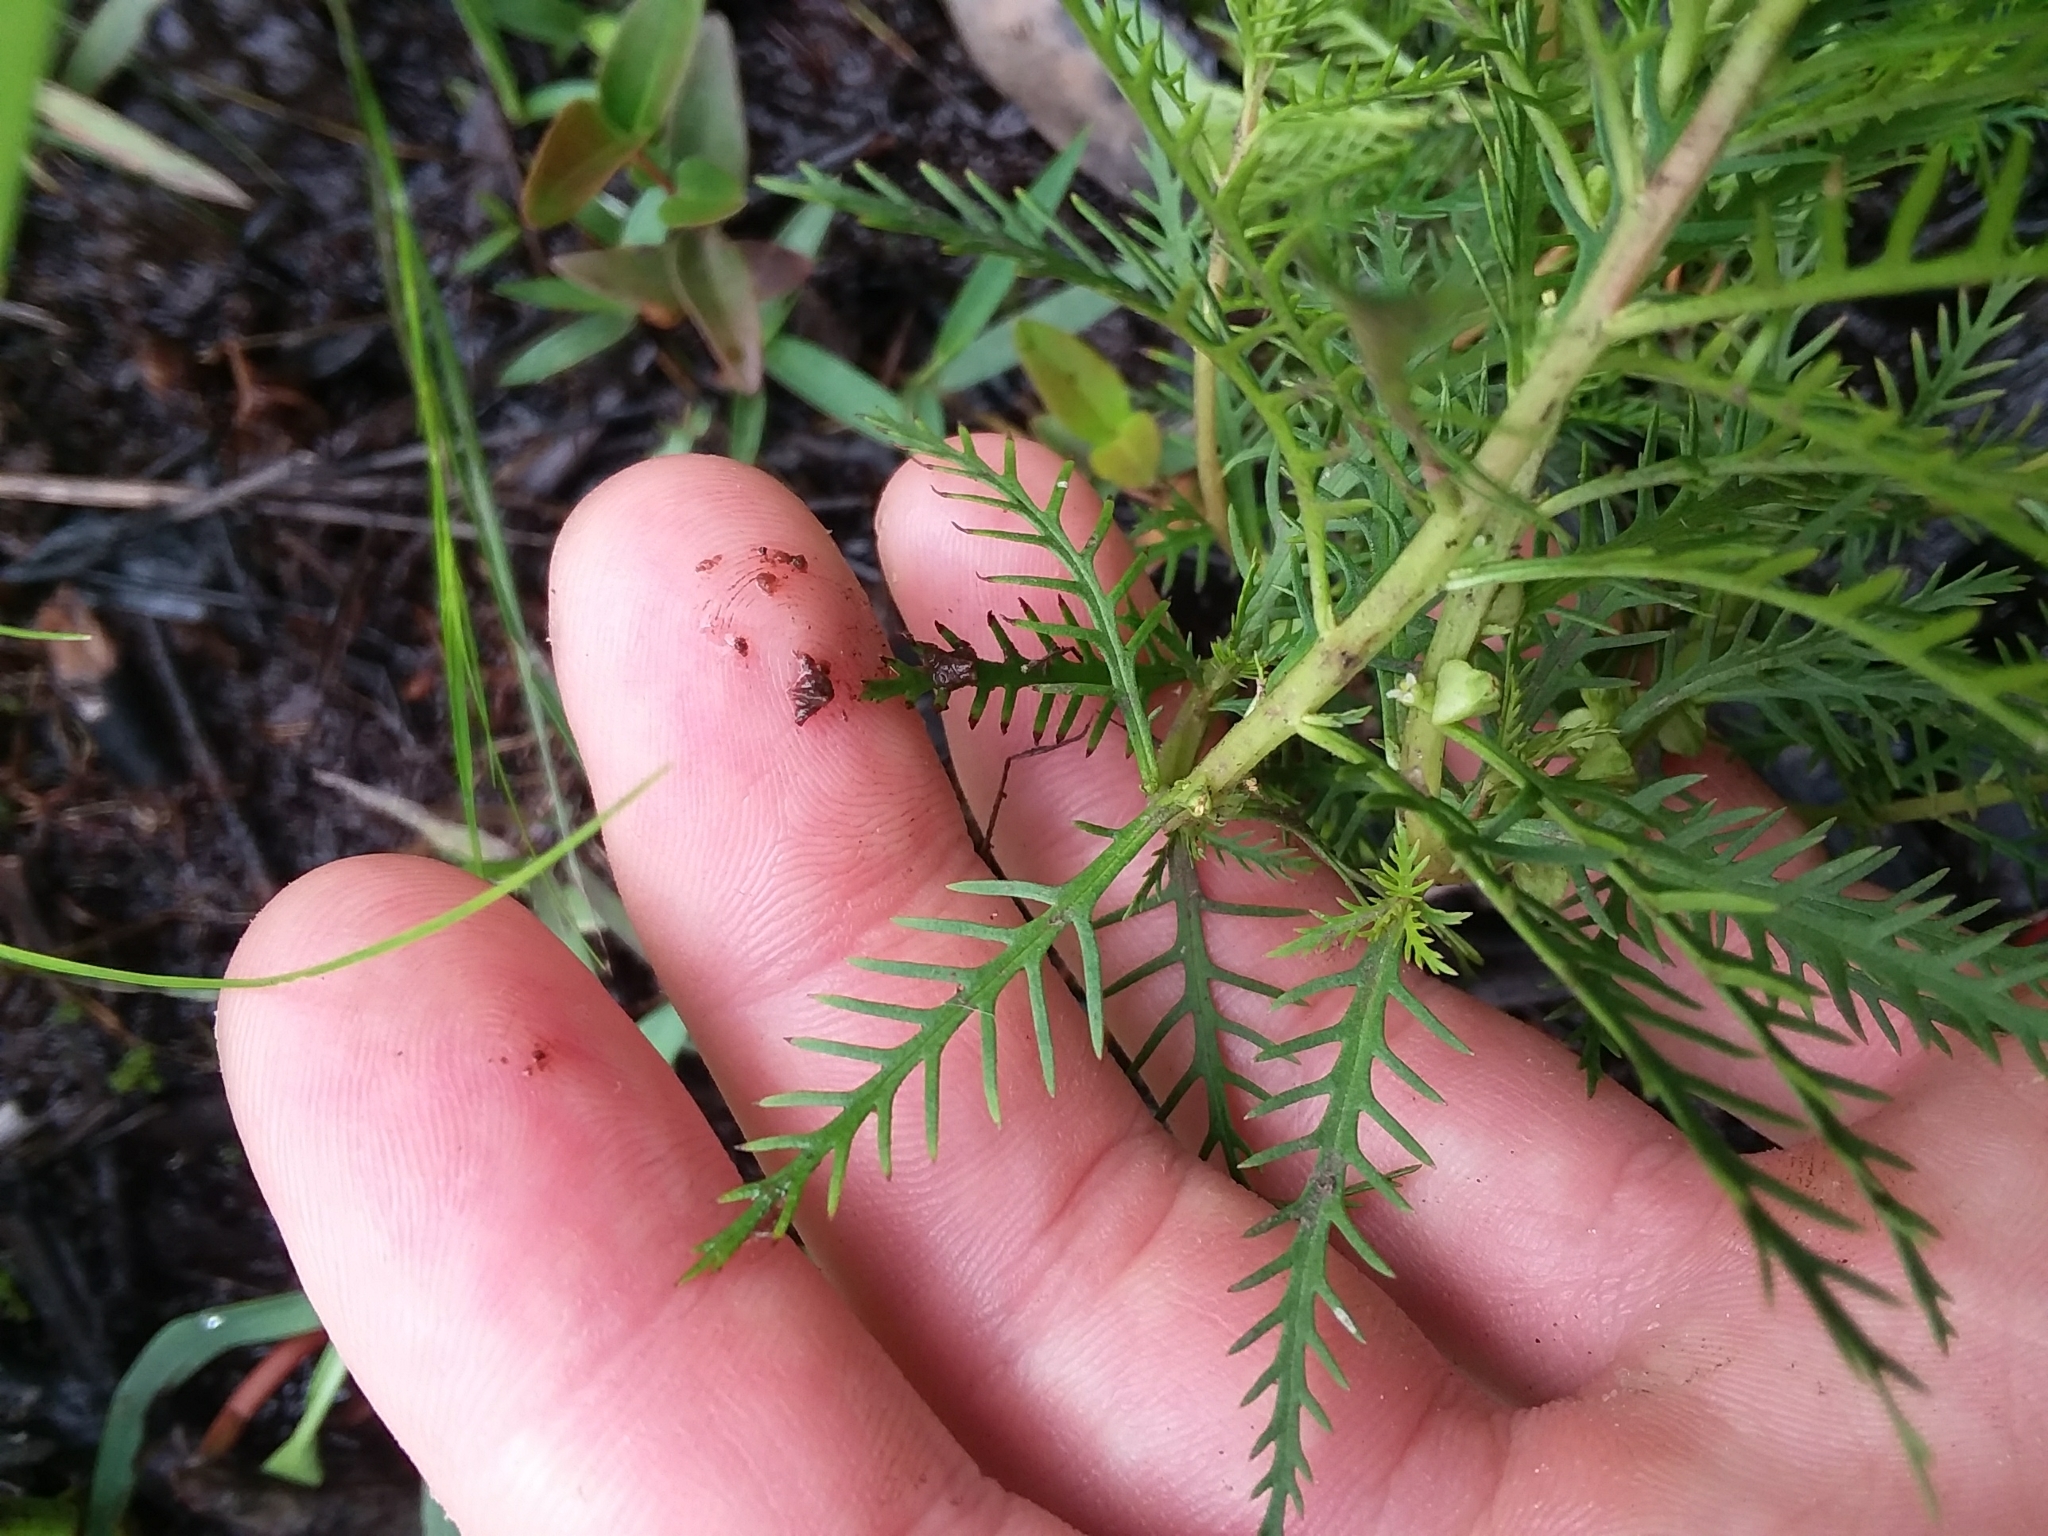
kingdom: Plantae
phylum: Tracheophyta
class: Magnoliopsida
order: Saxifragales
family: Haloragaceae
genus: Proserpinaca
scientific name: Proserpinaca intermedia
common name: Intermediate mermaidweed
